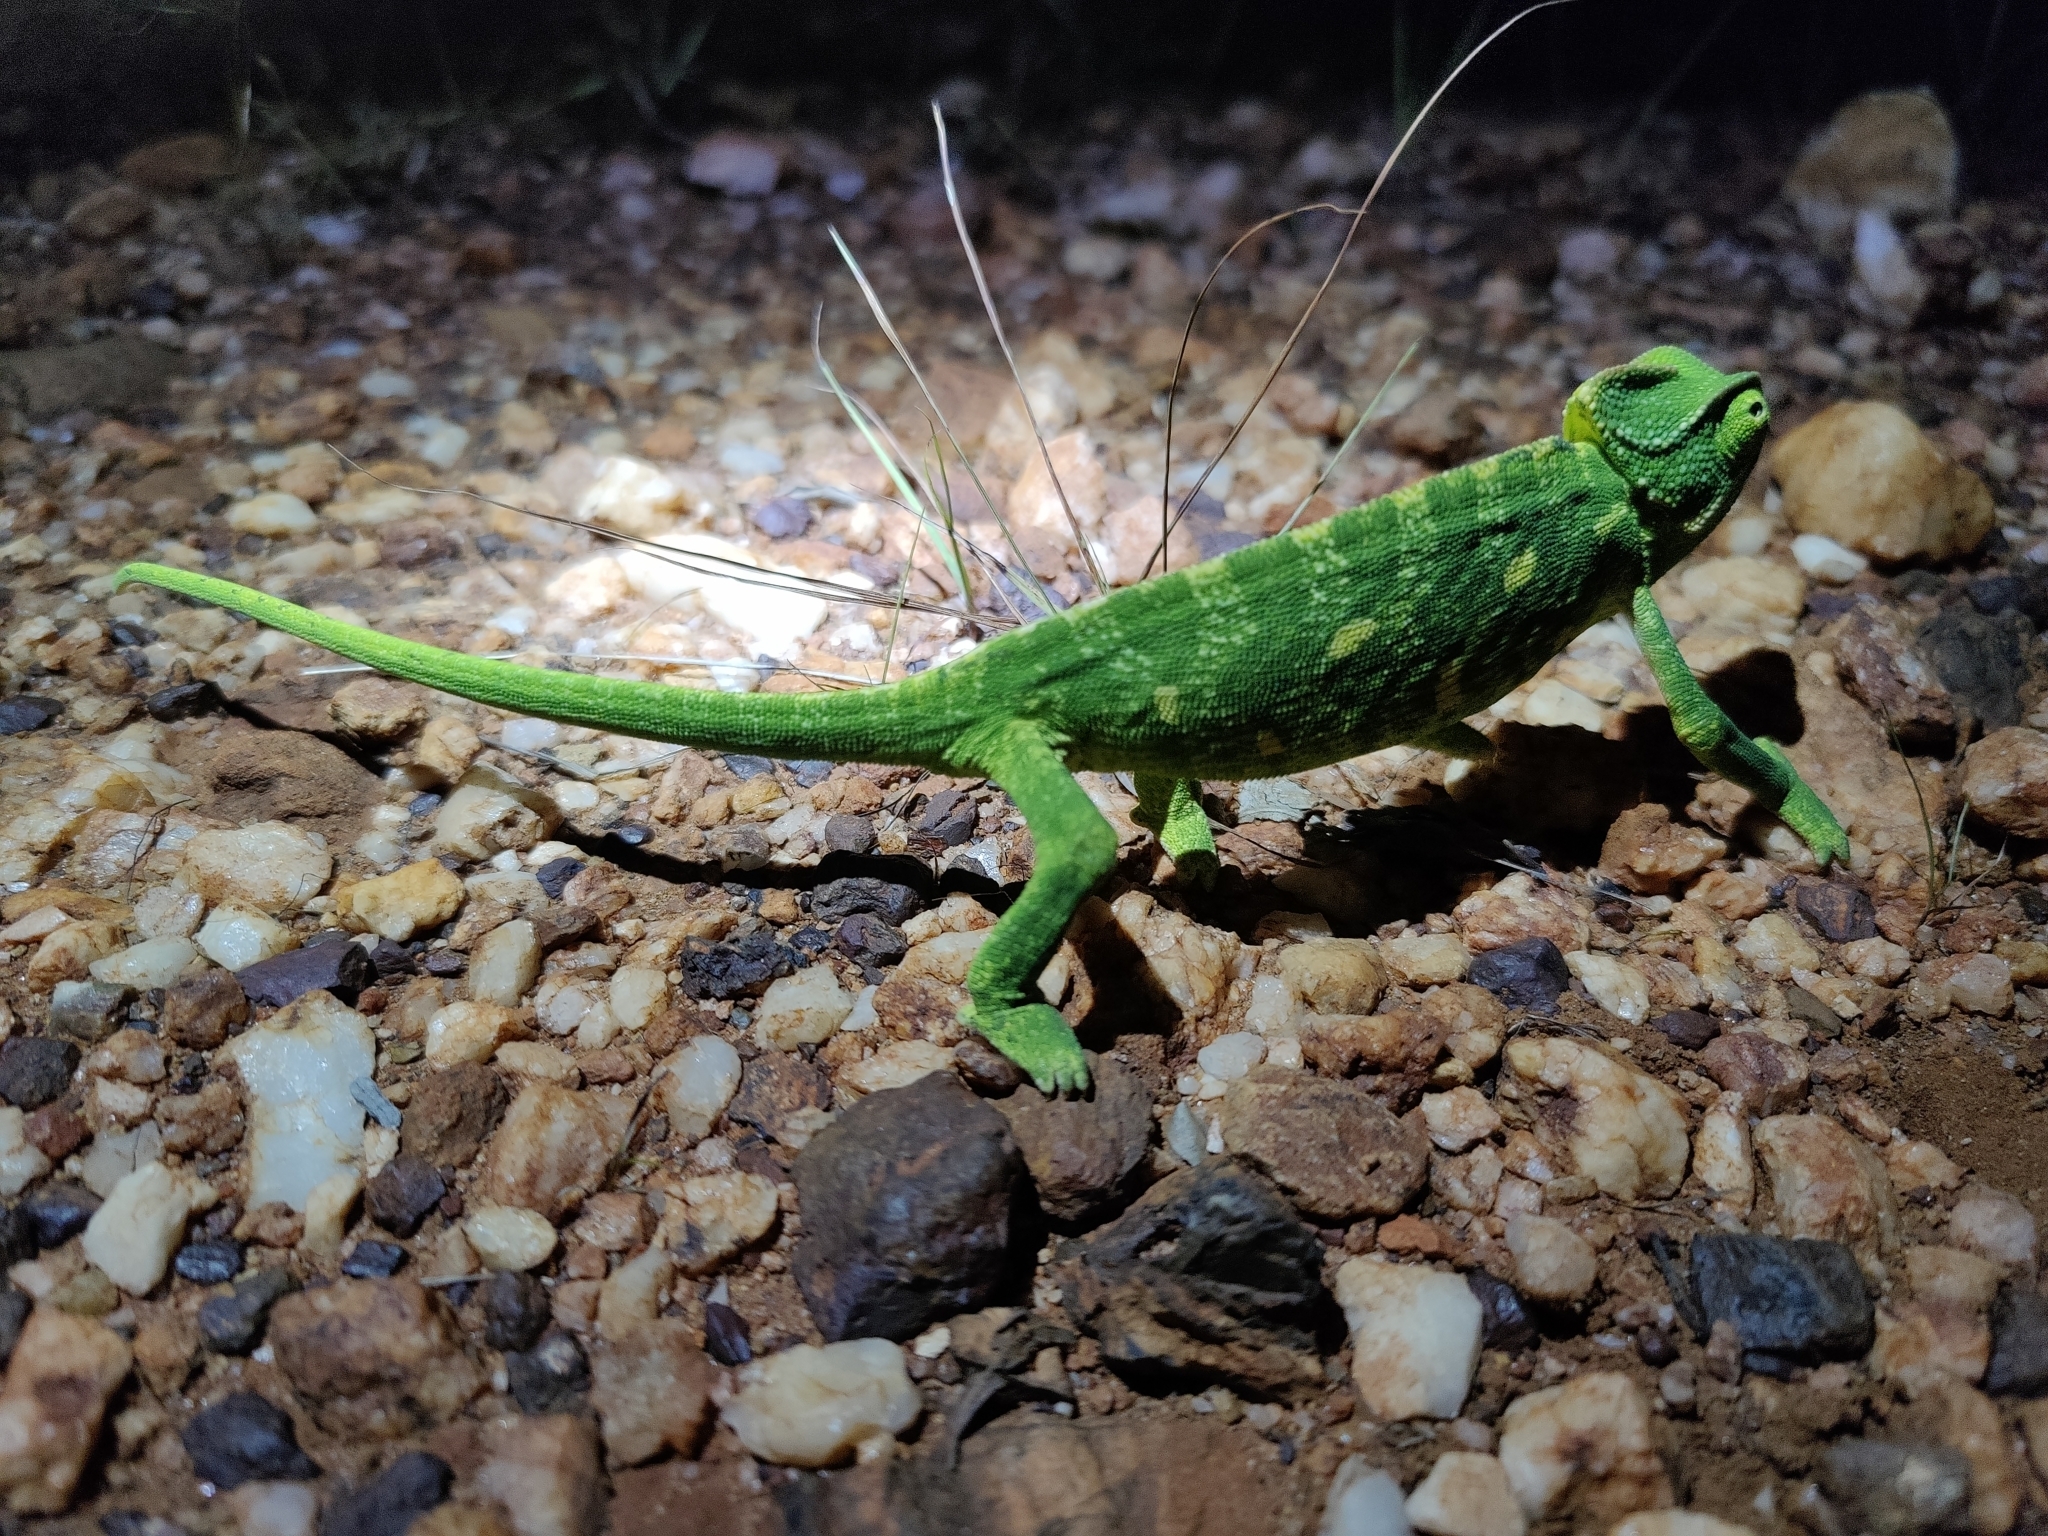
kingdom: Animalia
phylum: Chordata
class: Squamata
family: Chamaeleonidae
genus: Chamaeleo
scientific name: Chamaeleo zeylanicus
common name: Indian chameleon
